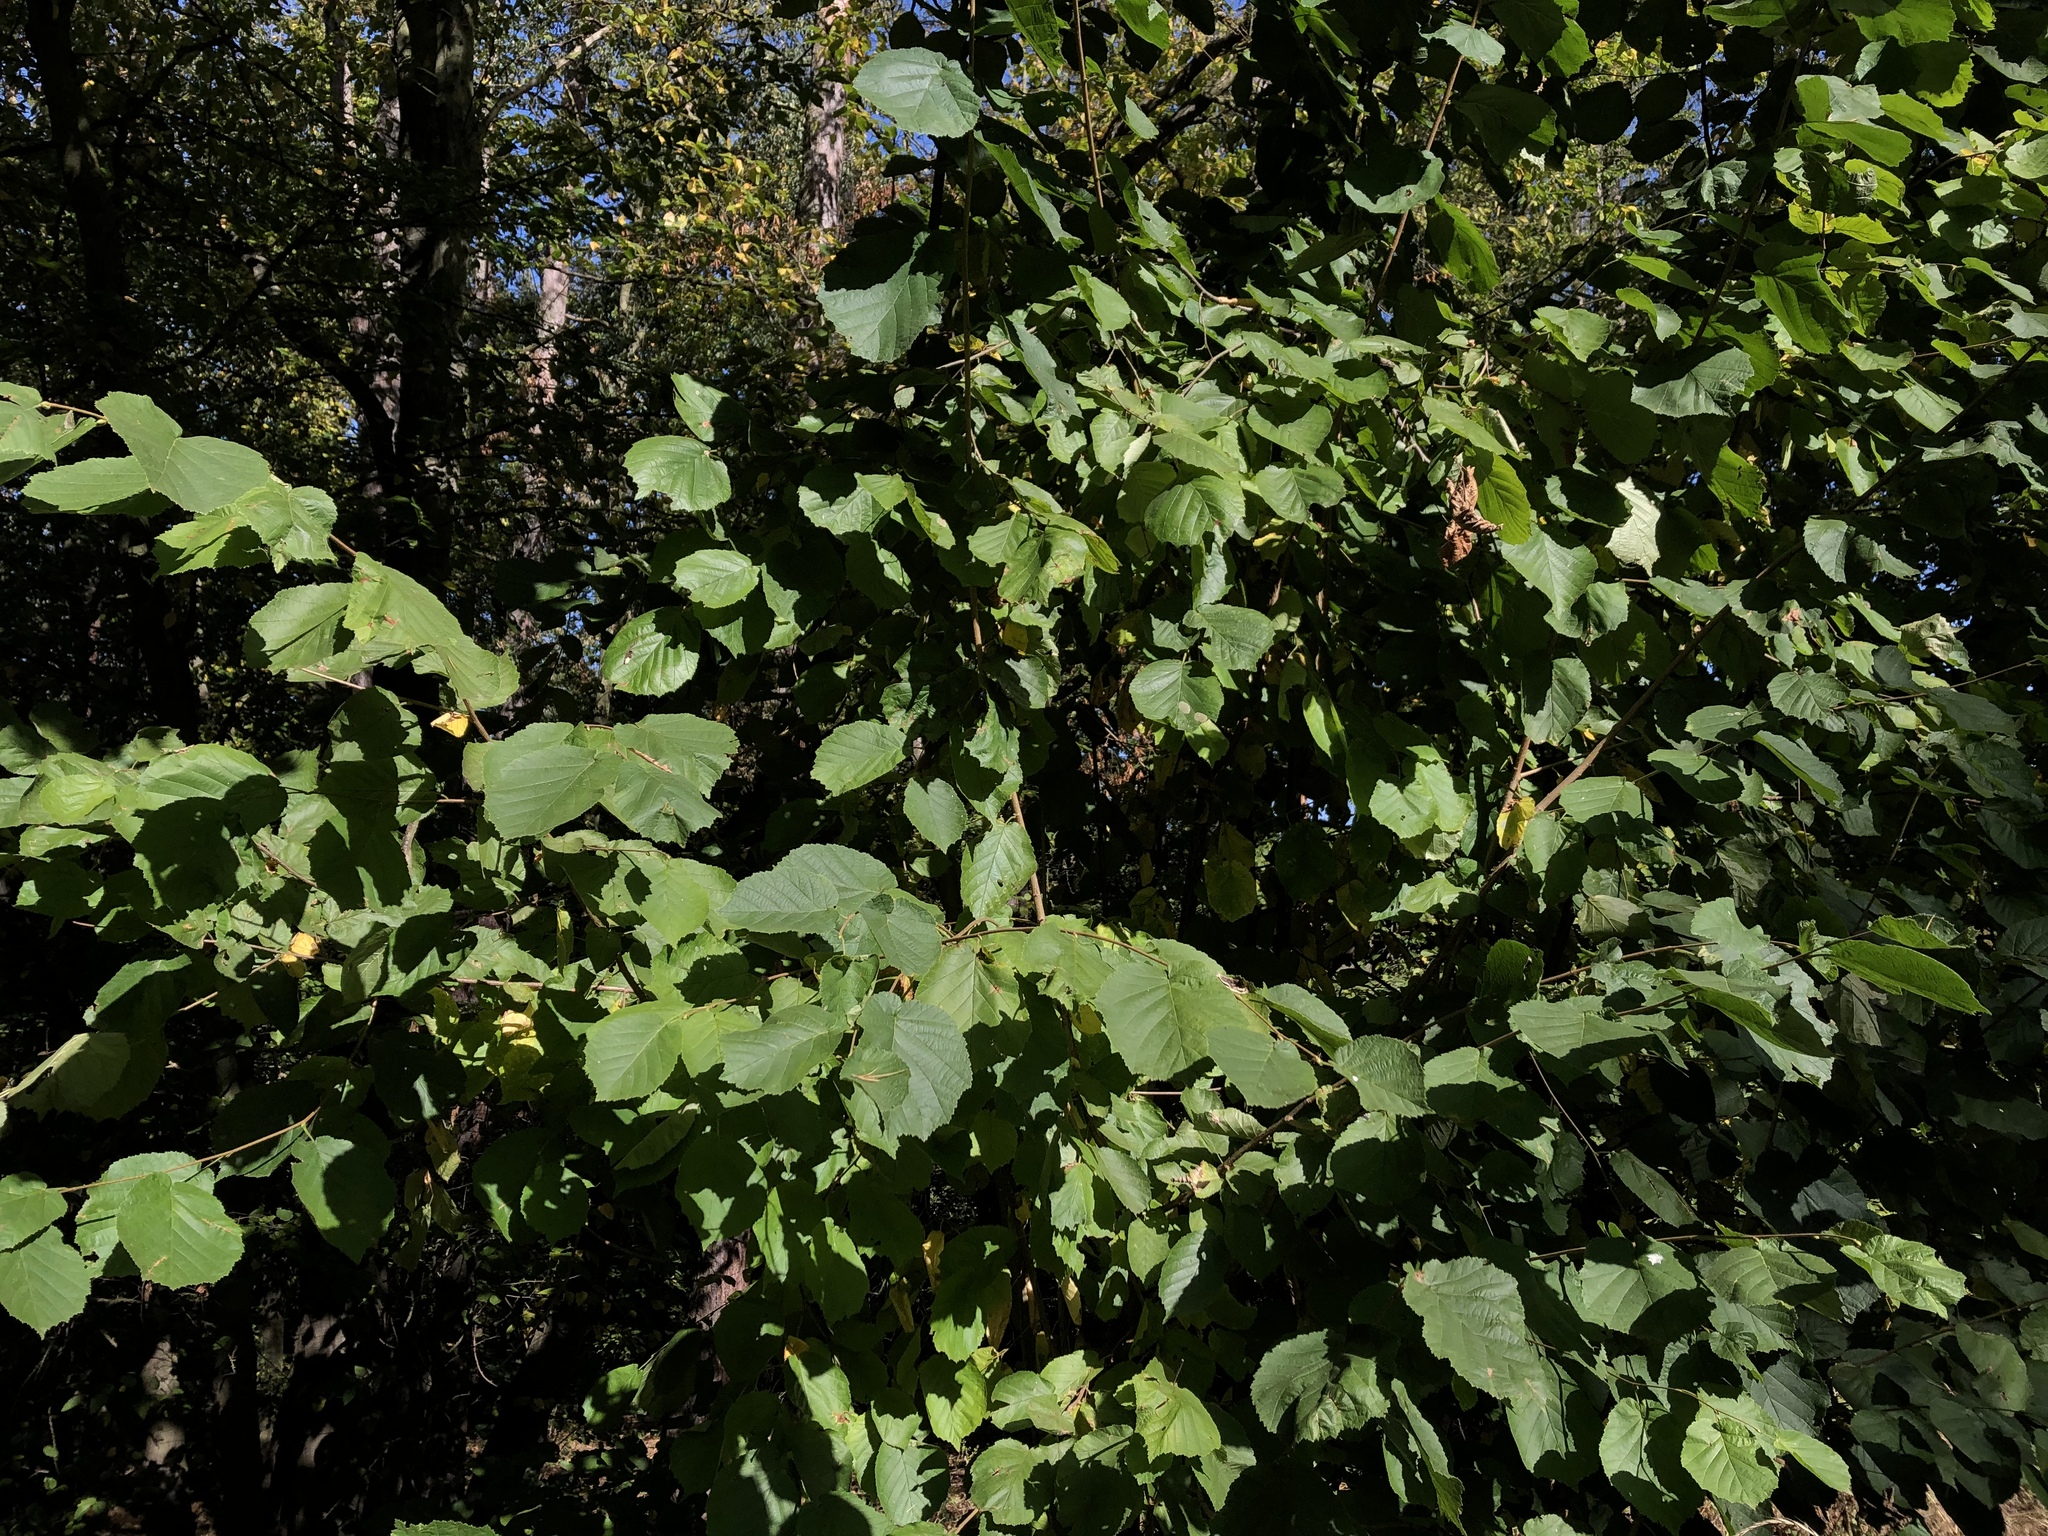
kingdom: Plantae
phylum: Tracheophyta
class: Magnoliopsida
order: Fagales
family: Betulaceae
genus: Corylus
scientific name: Corylus avellana
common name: European hazel
